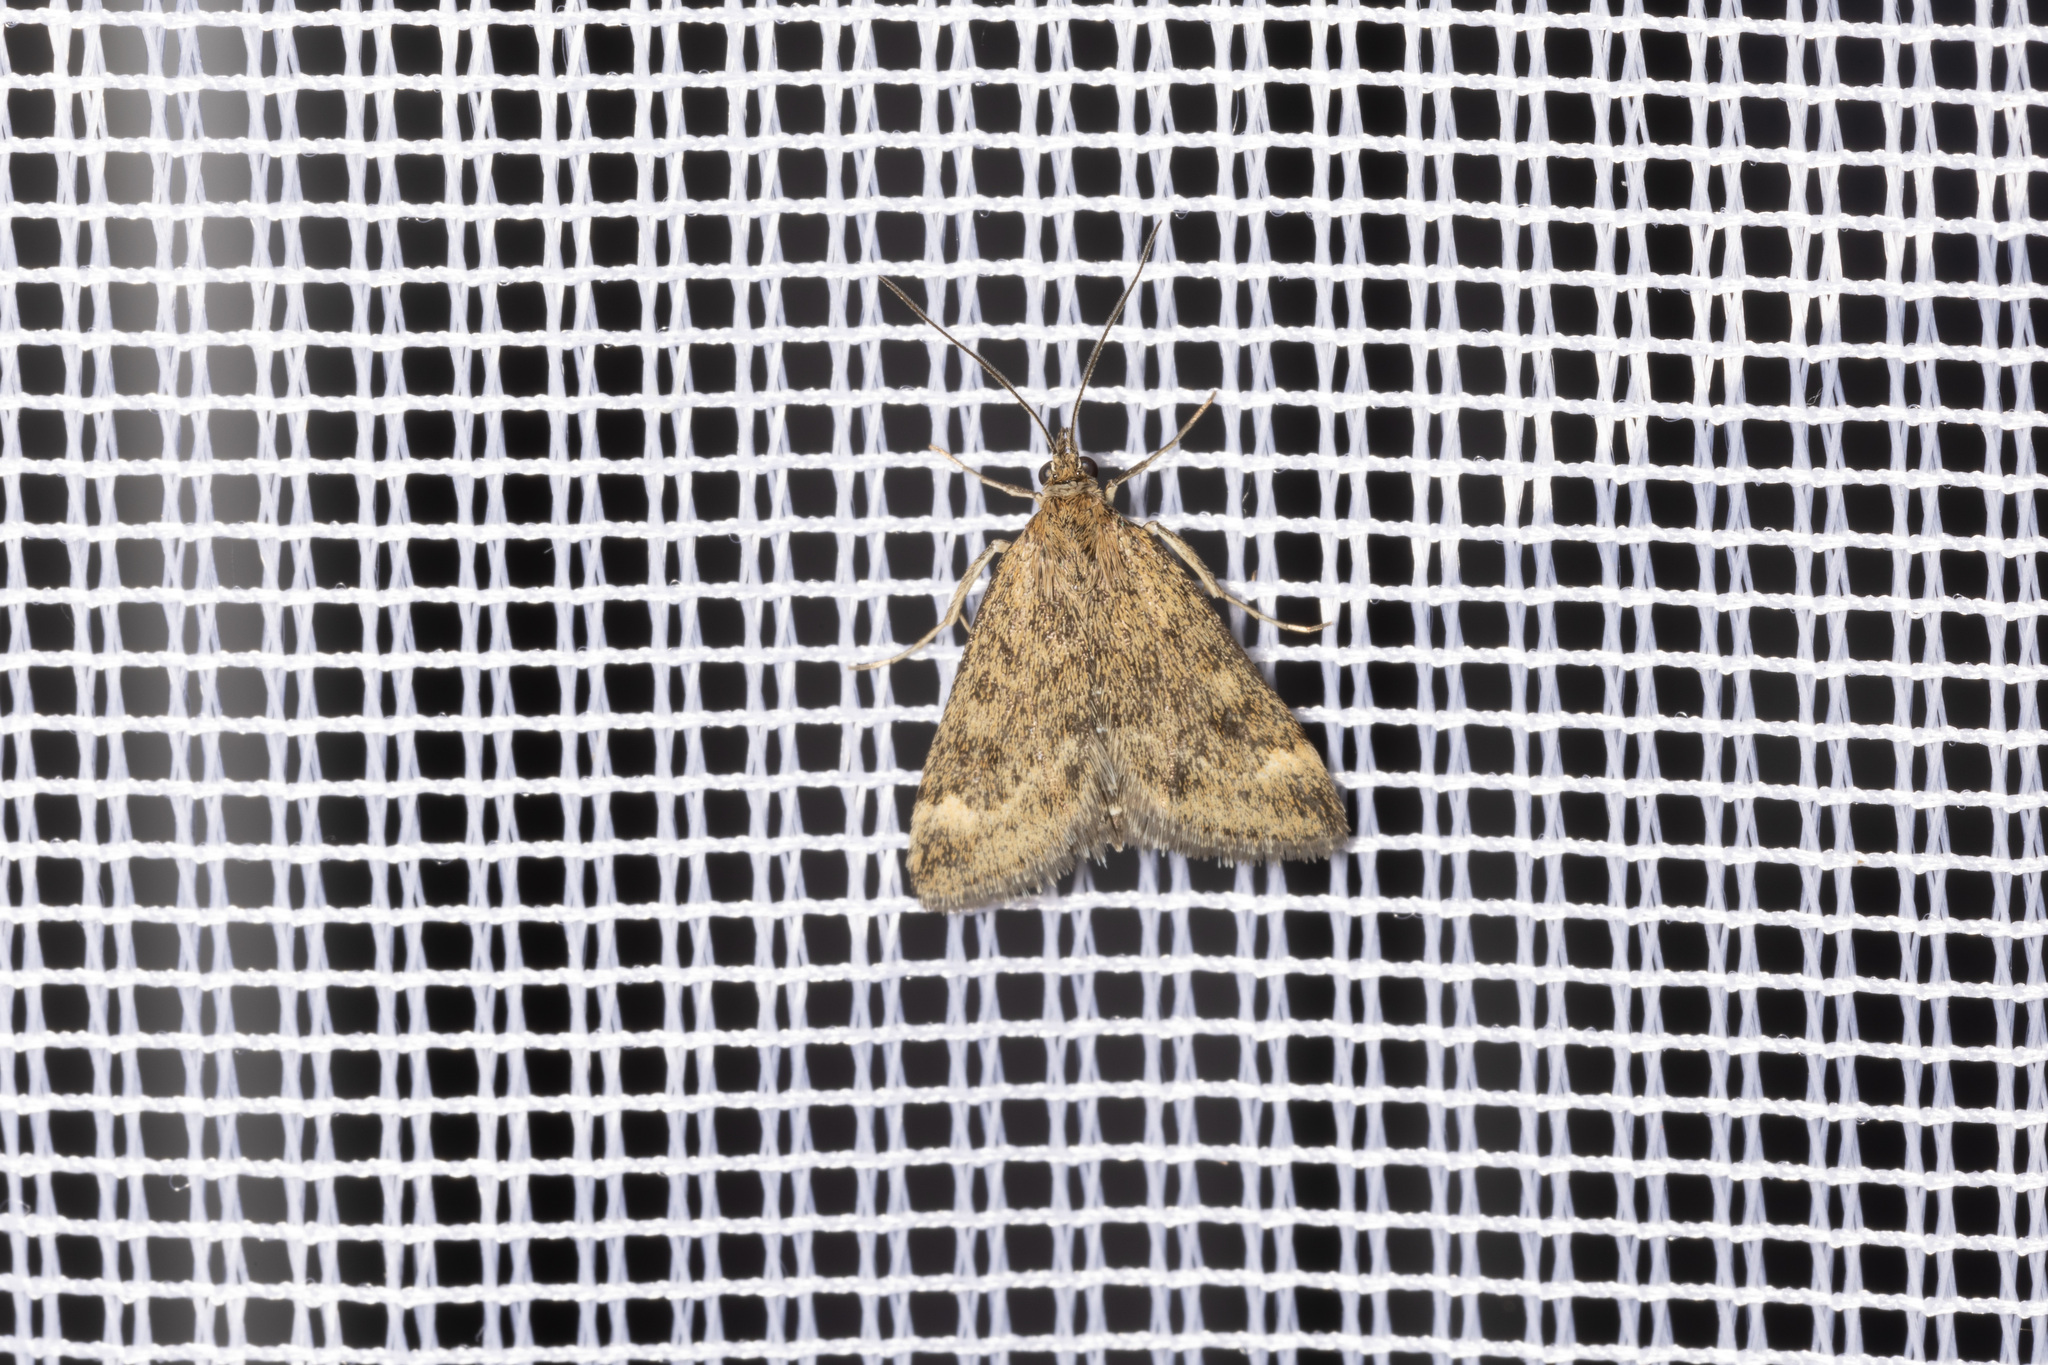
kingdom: Animalia
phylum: Arthropoda
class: Insecta
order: Lepidoptera
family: Crambidae
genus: Pyrausta
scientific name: Pyrausta despicata
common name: Straw-barred pearl
